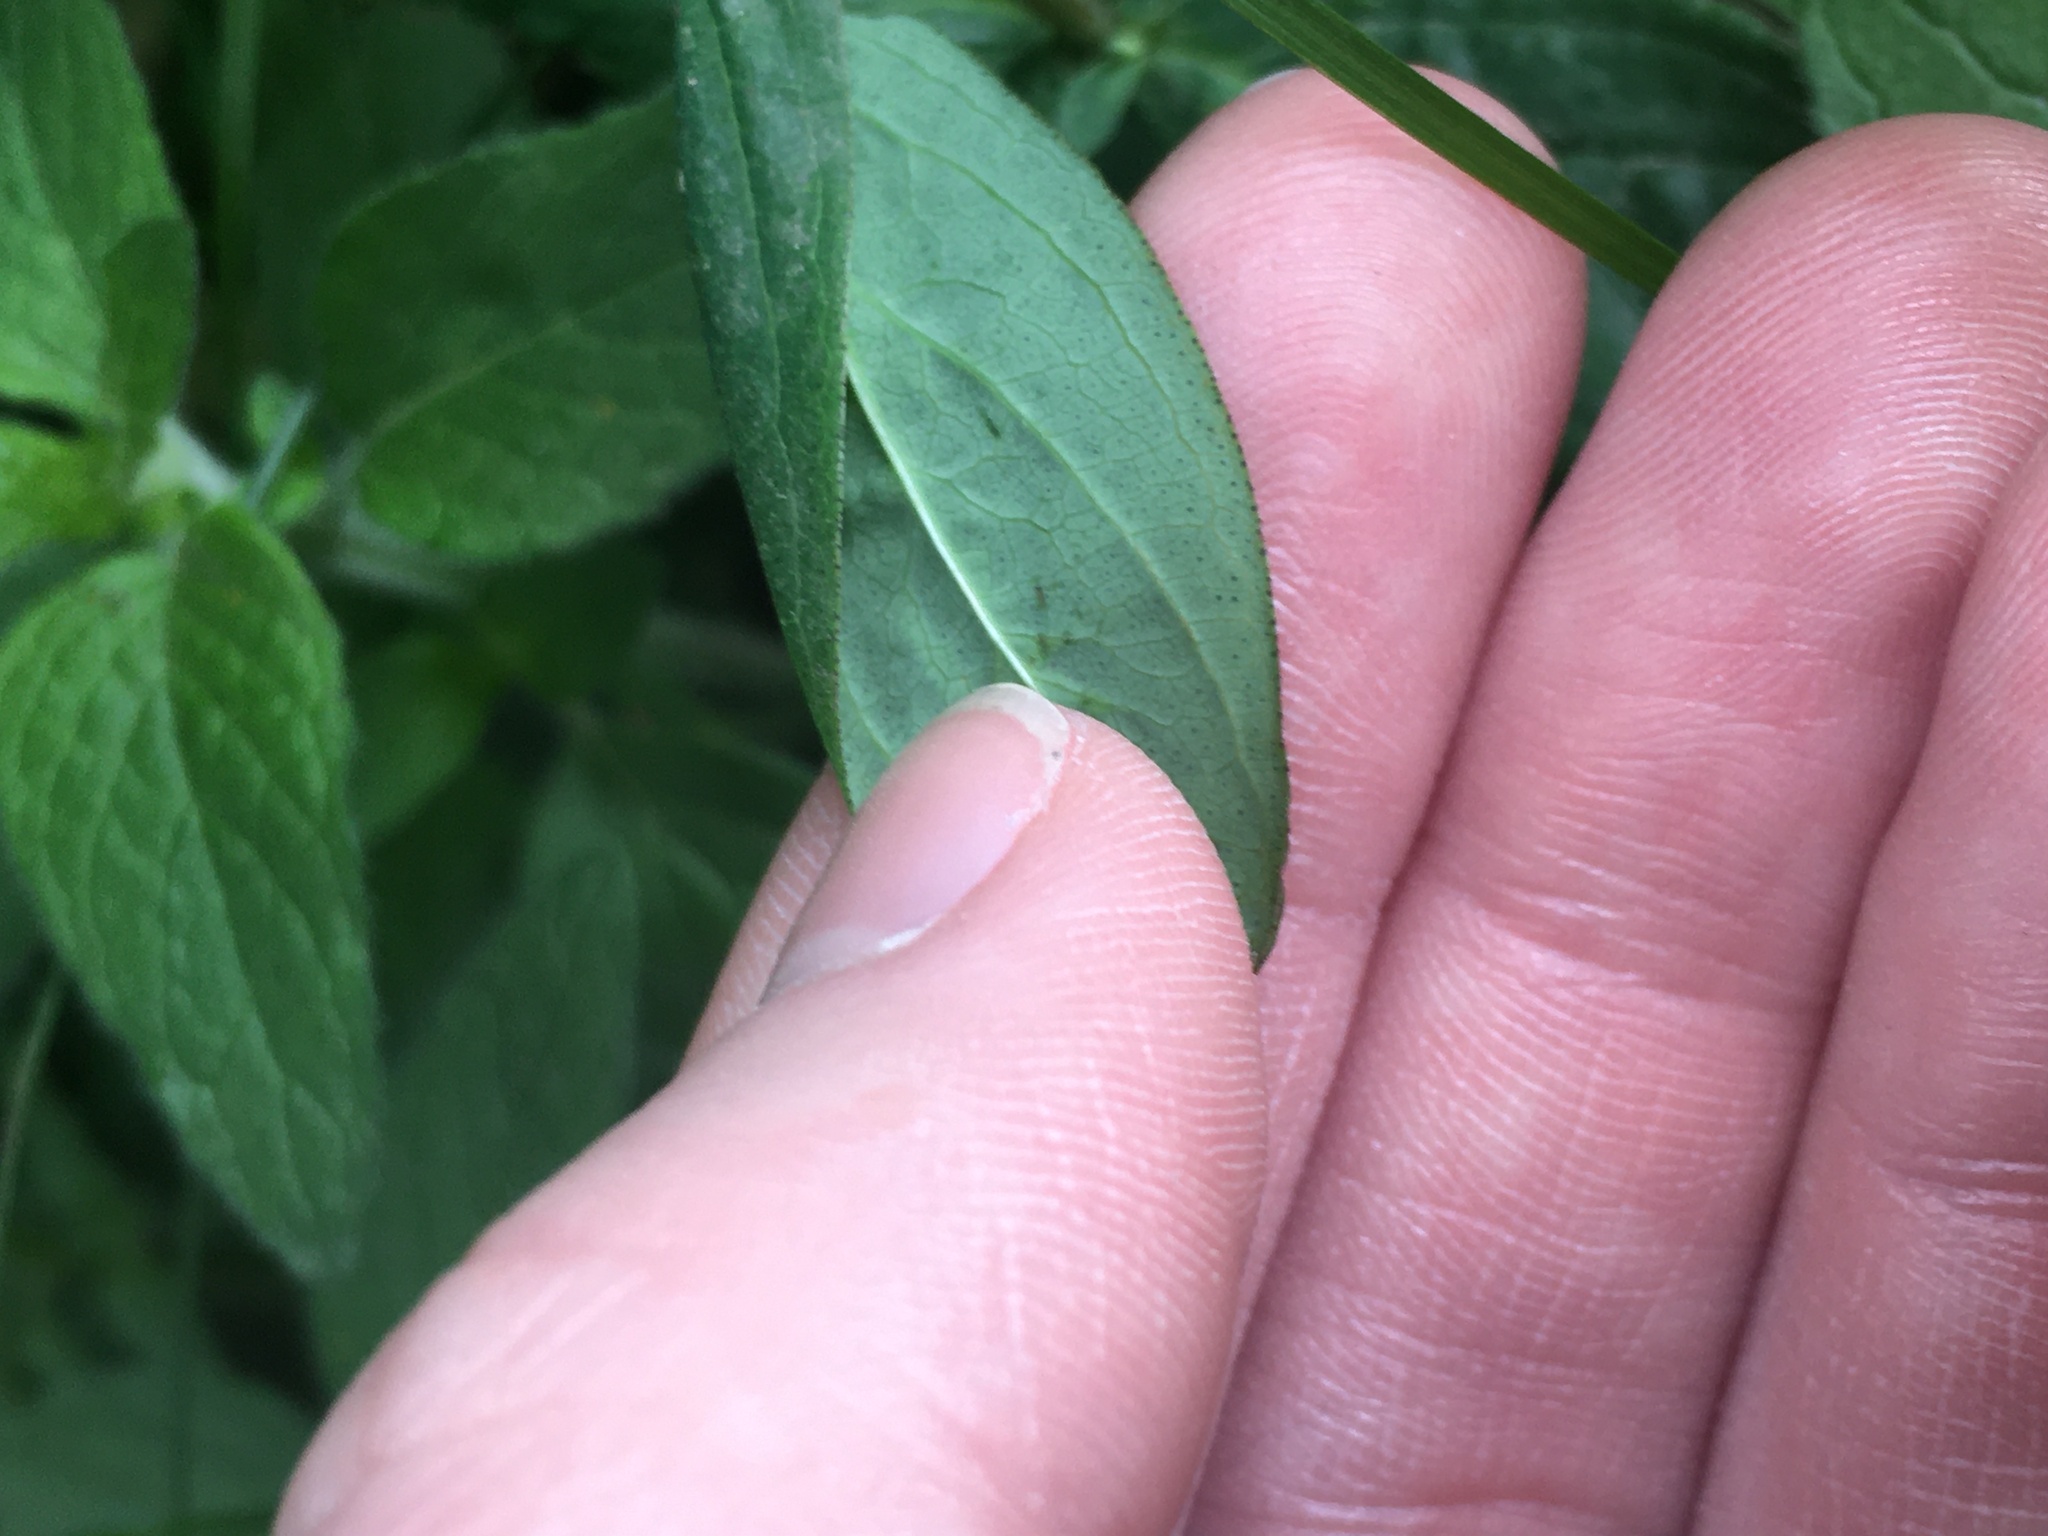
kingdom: Plantae
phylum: Tracheophyta
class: Magnoliopsida
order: Malpighiales
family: Hypericaceae
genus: Hypericum
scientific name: Hypericum punctatum
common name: Spotted st. john's-wort
